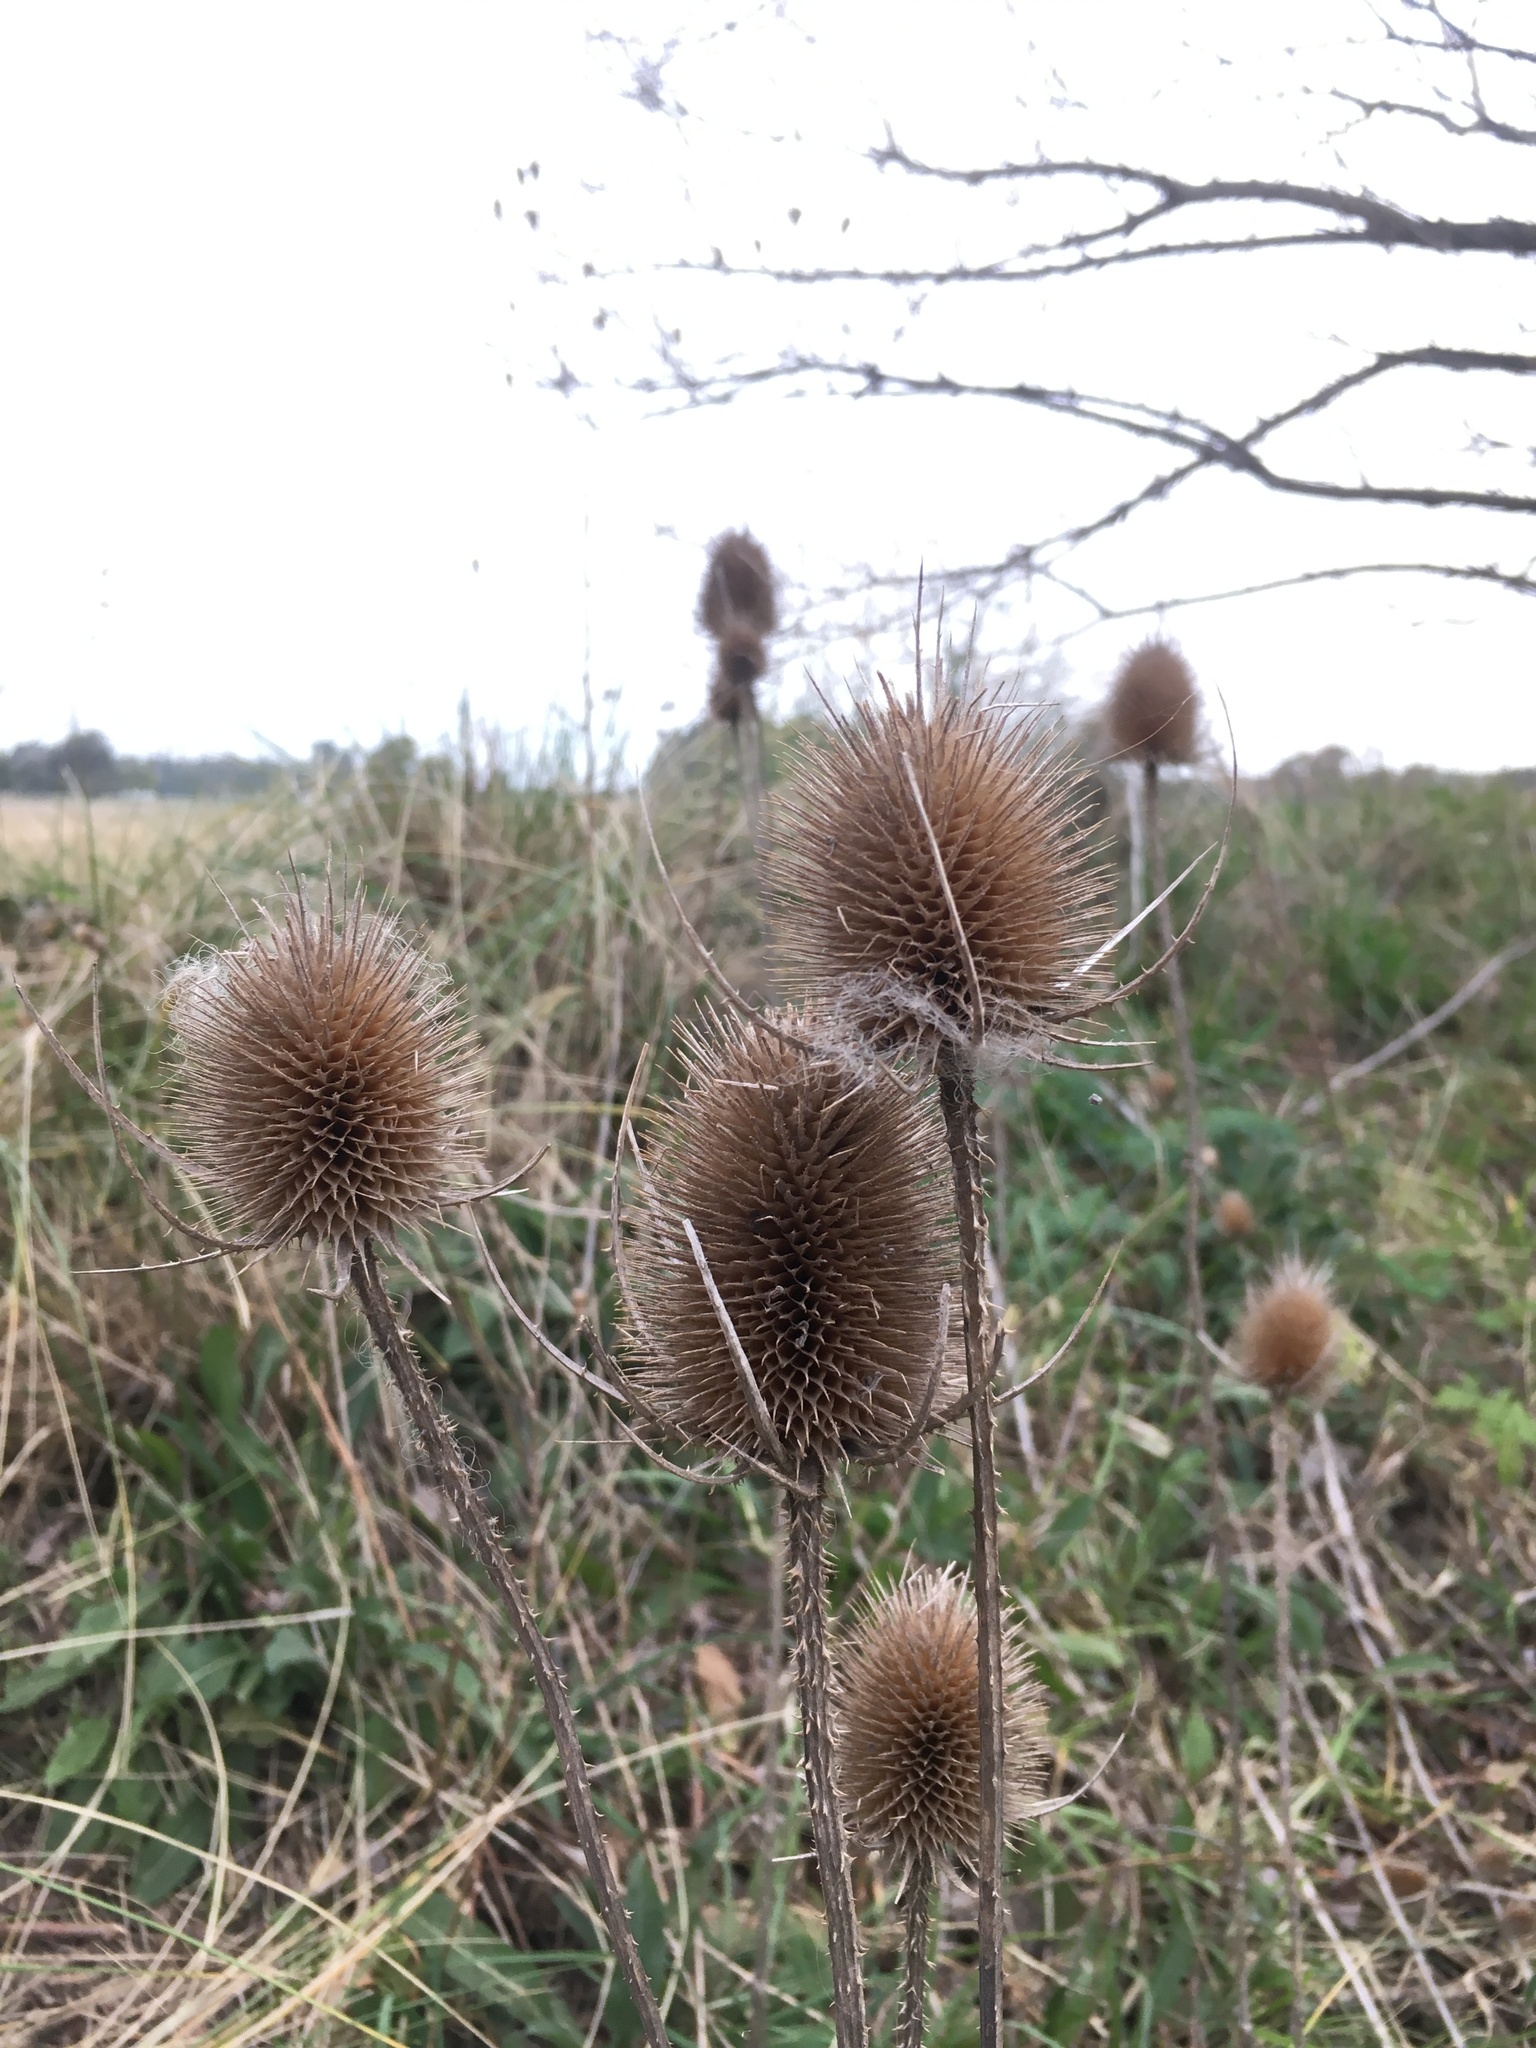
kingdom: Plantae
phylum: Tracheophyta
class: Magnoliopsida
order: Dipsacales
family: Caprifoliaceae
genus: Dipsacus
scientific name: Dipsacus fullonum
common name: Teasel
